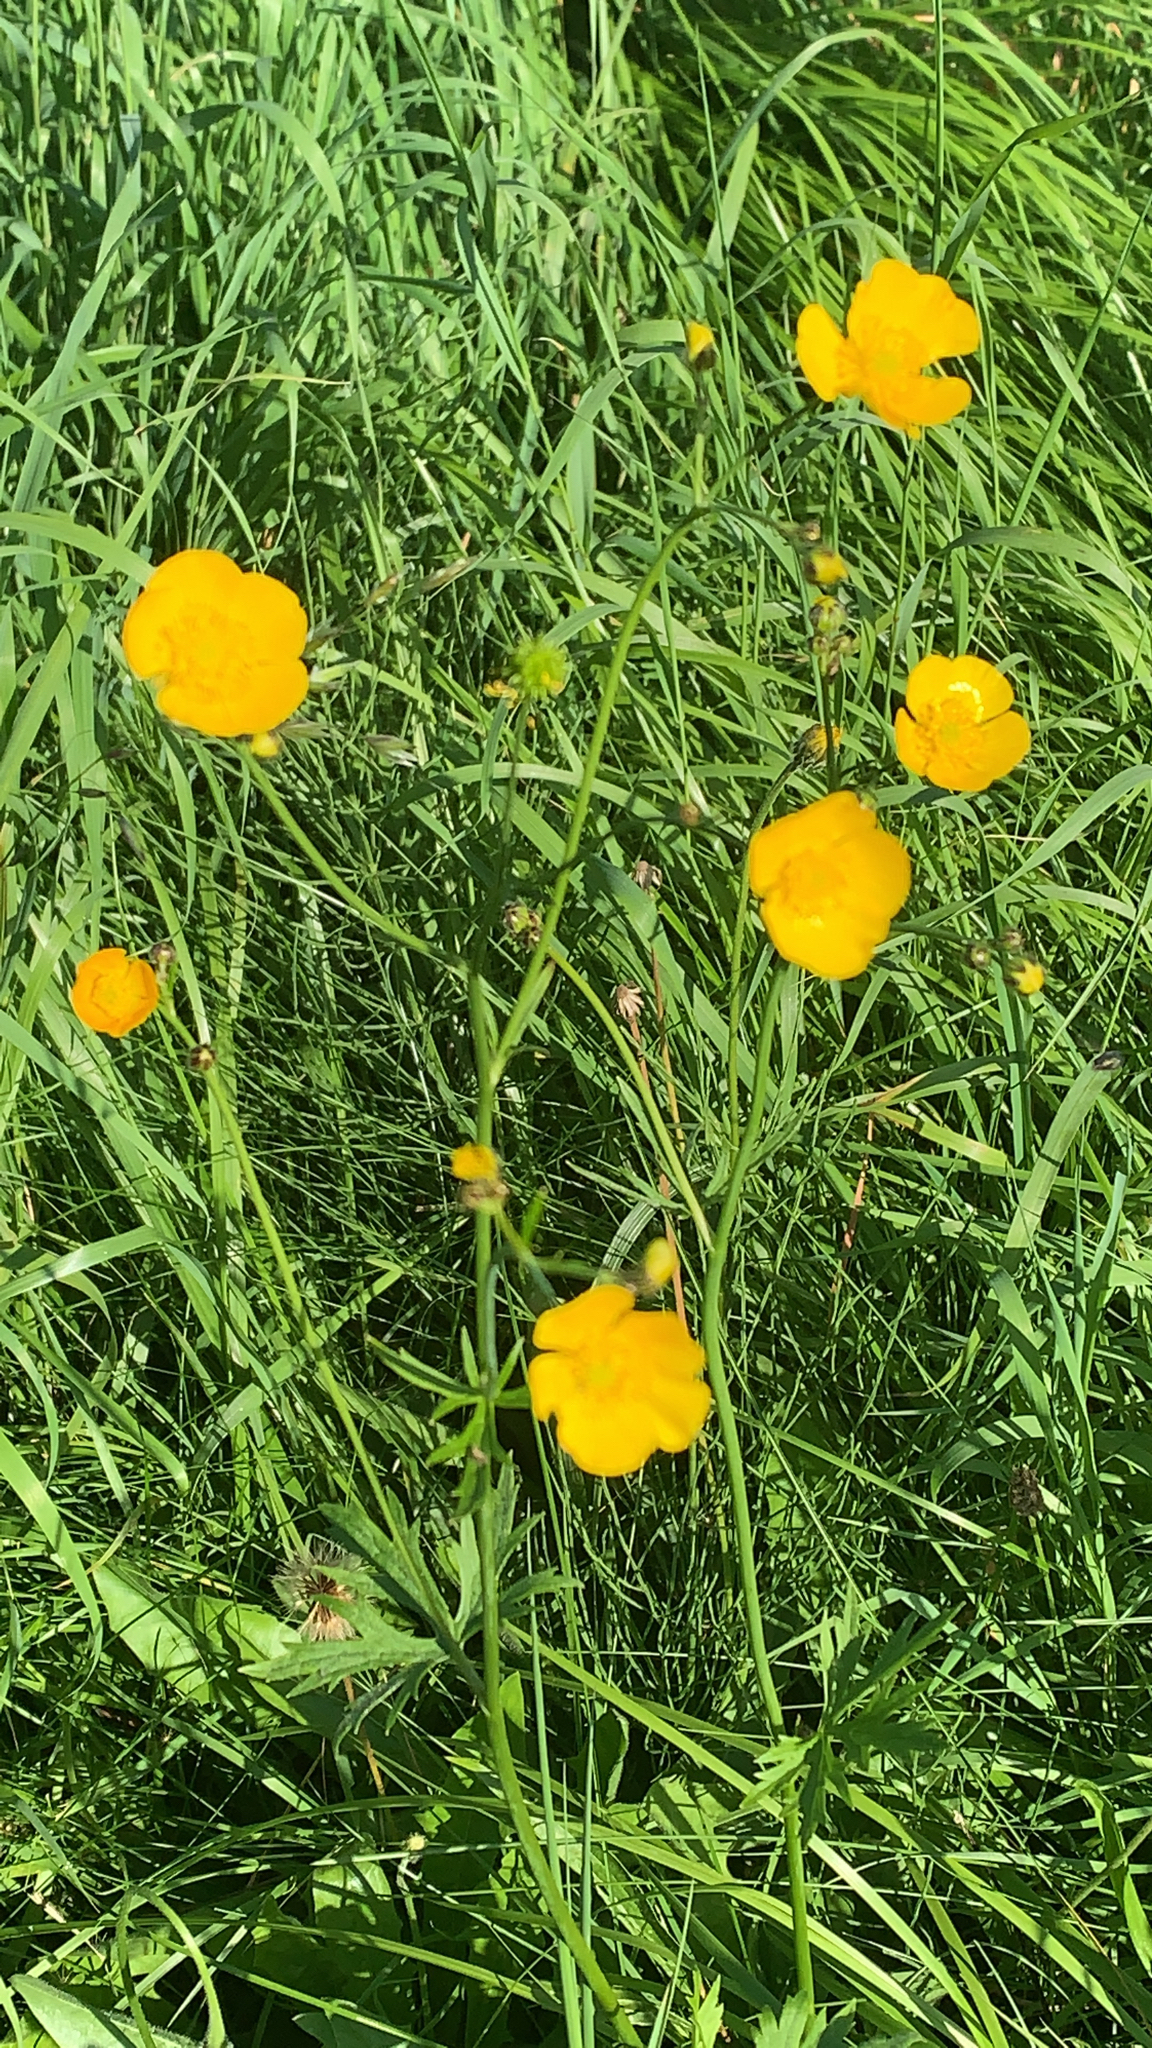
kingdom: Plantae
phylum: Tracheophyta
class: Magnoliopsida
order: Ranunculales
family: Ranunculaceae
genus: Ranunculus
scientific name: Ranunculus acris
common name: Meadow buttercup
